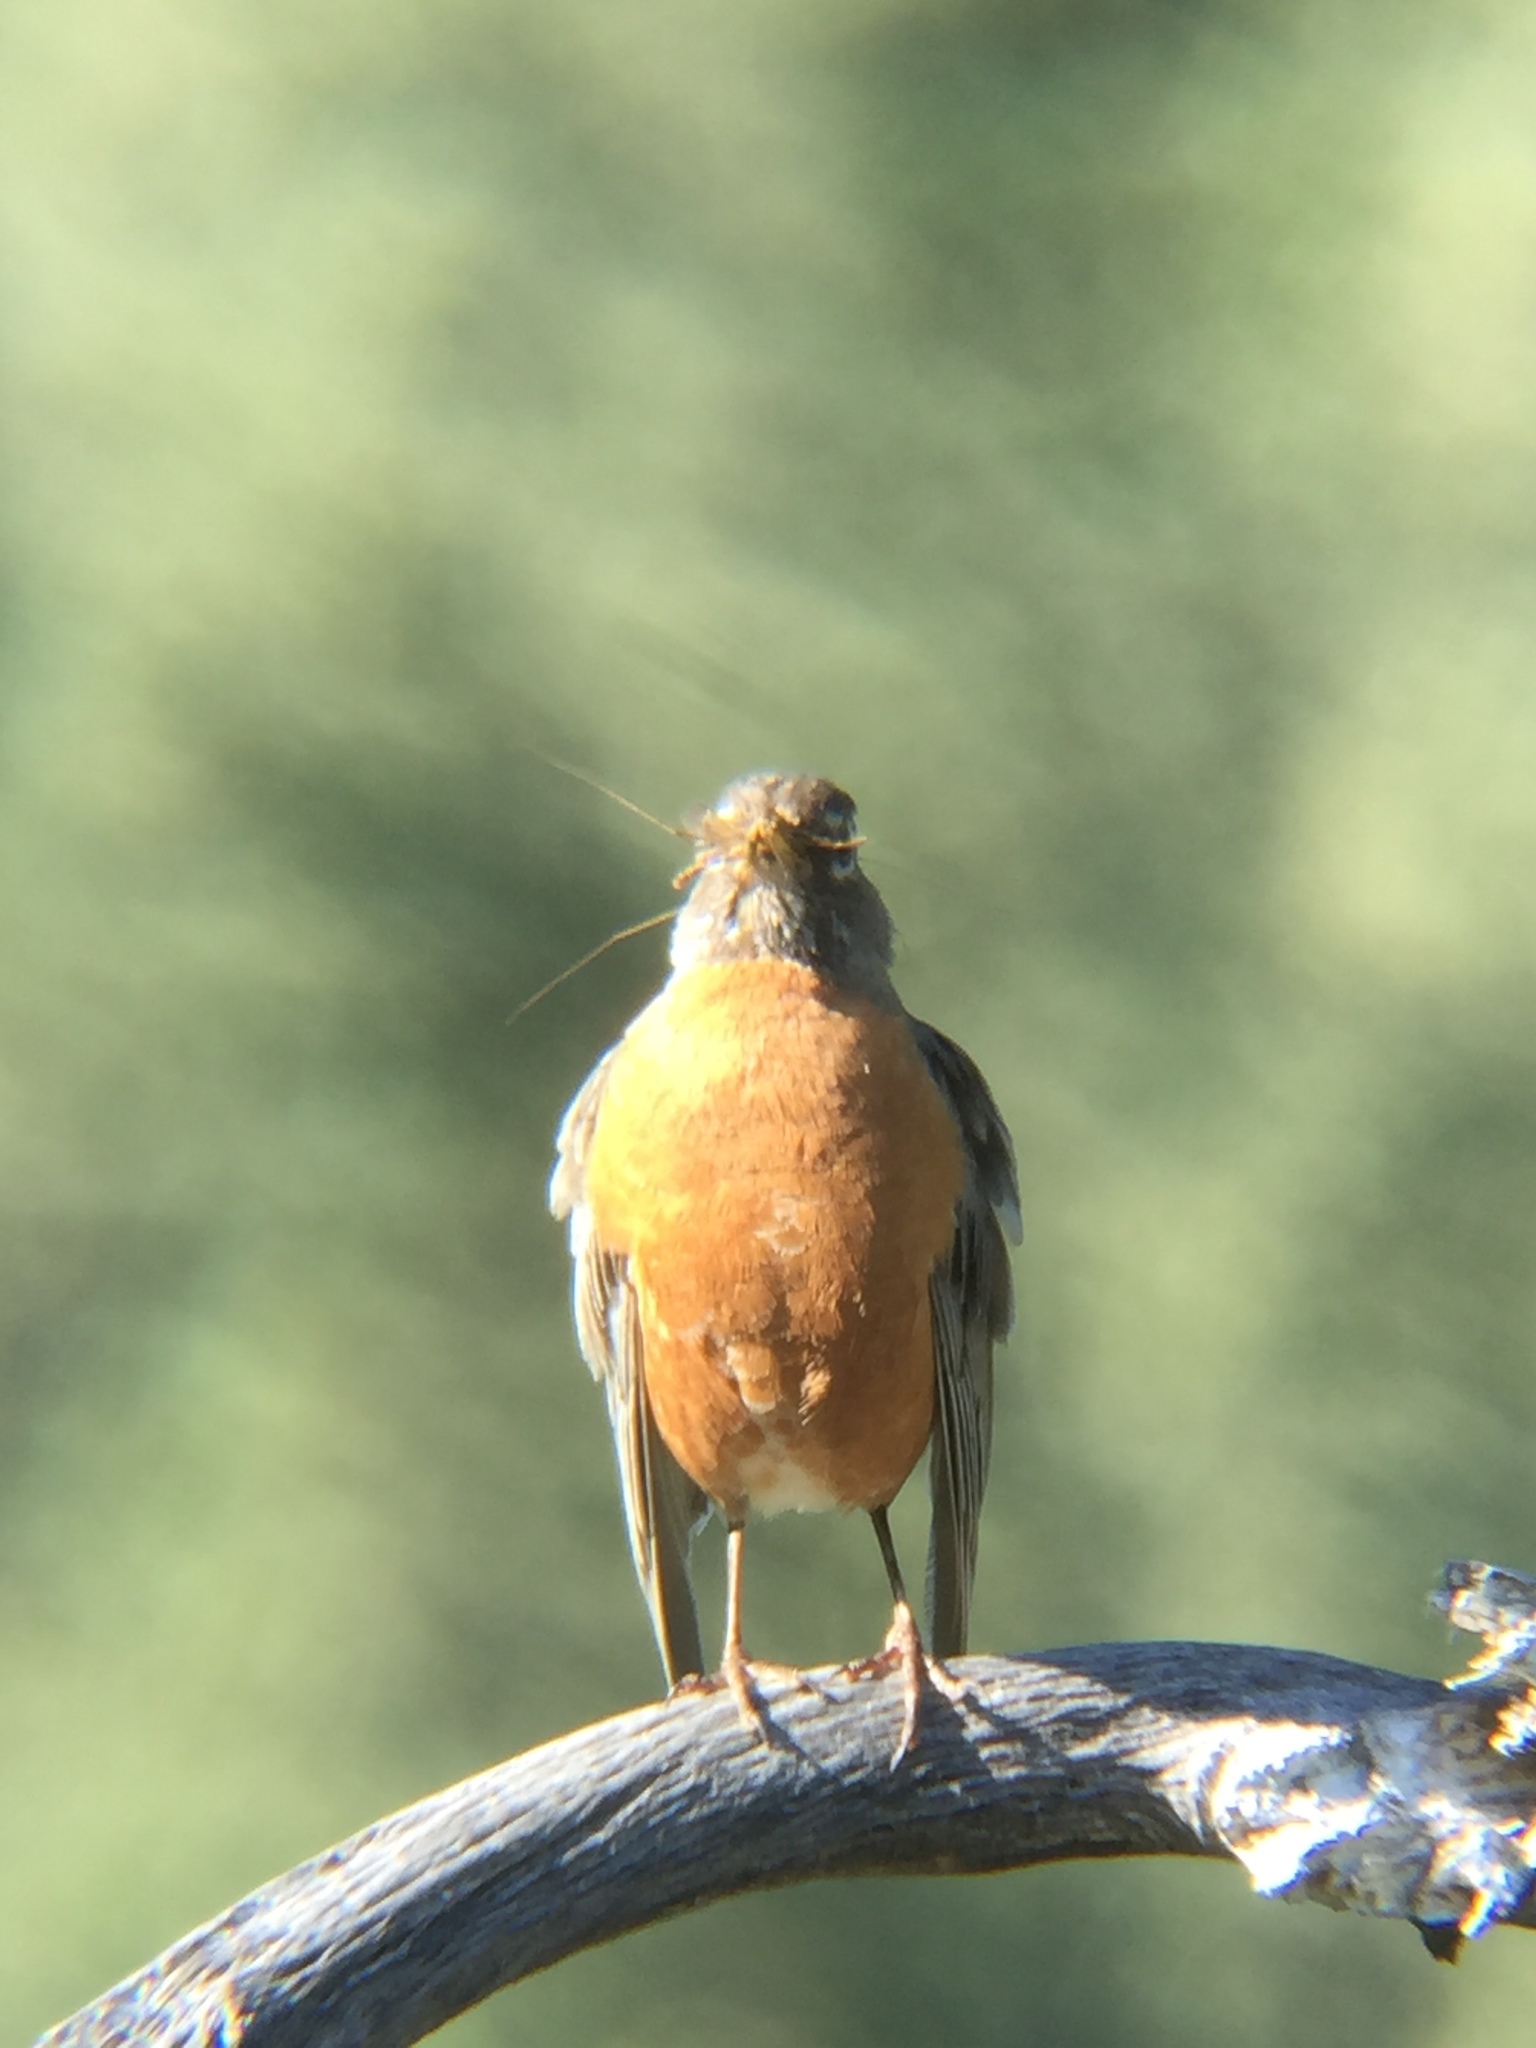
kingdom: Animalia
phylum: Chordata
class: Aves
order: Passeriformes
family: Turdidae
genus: Turdus
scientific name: Turdus migratorius
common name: American robin
